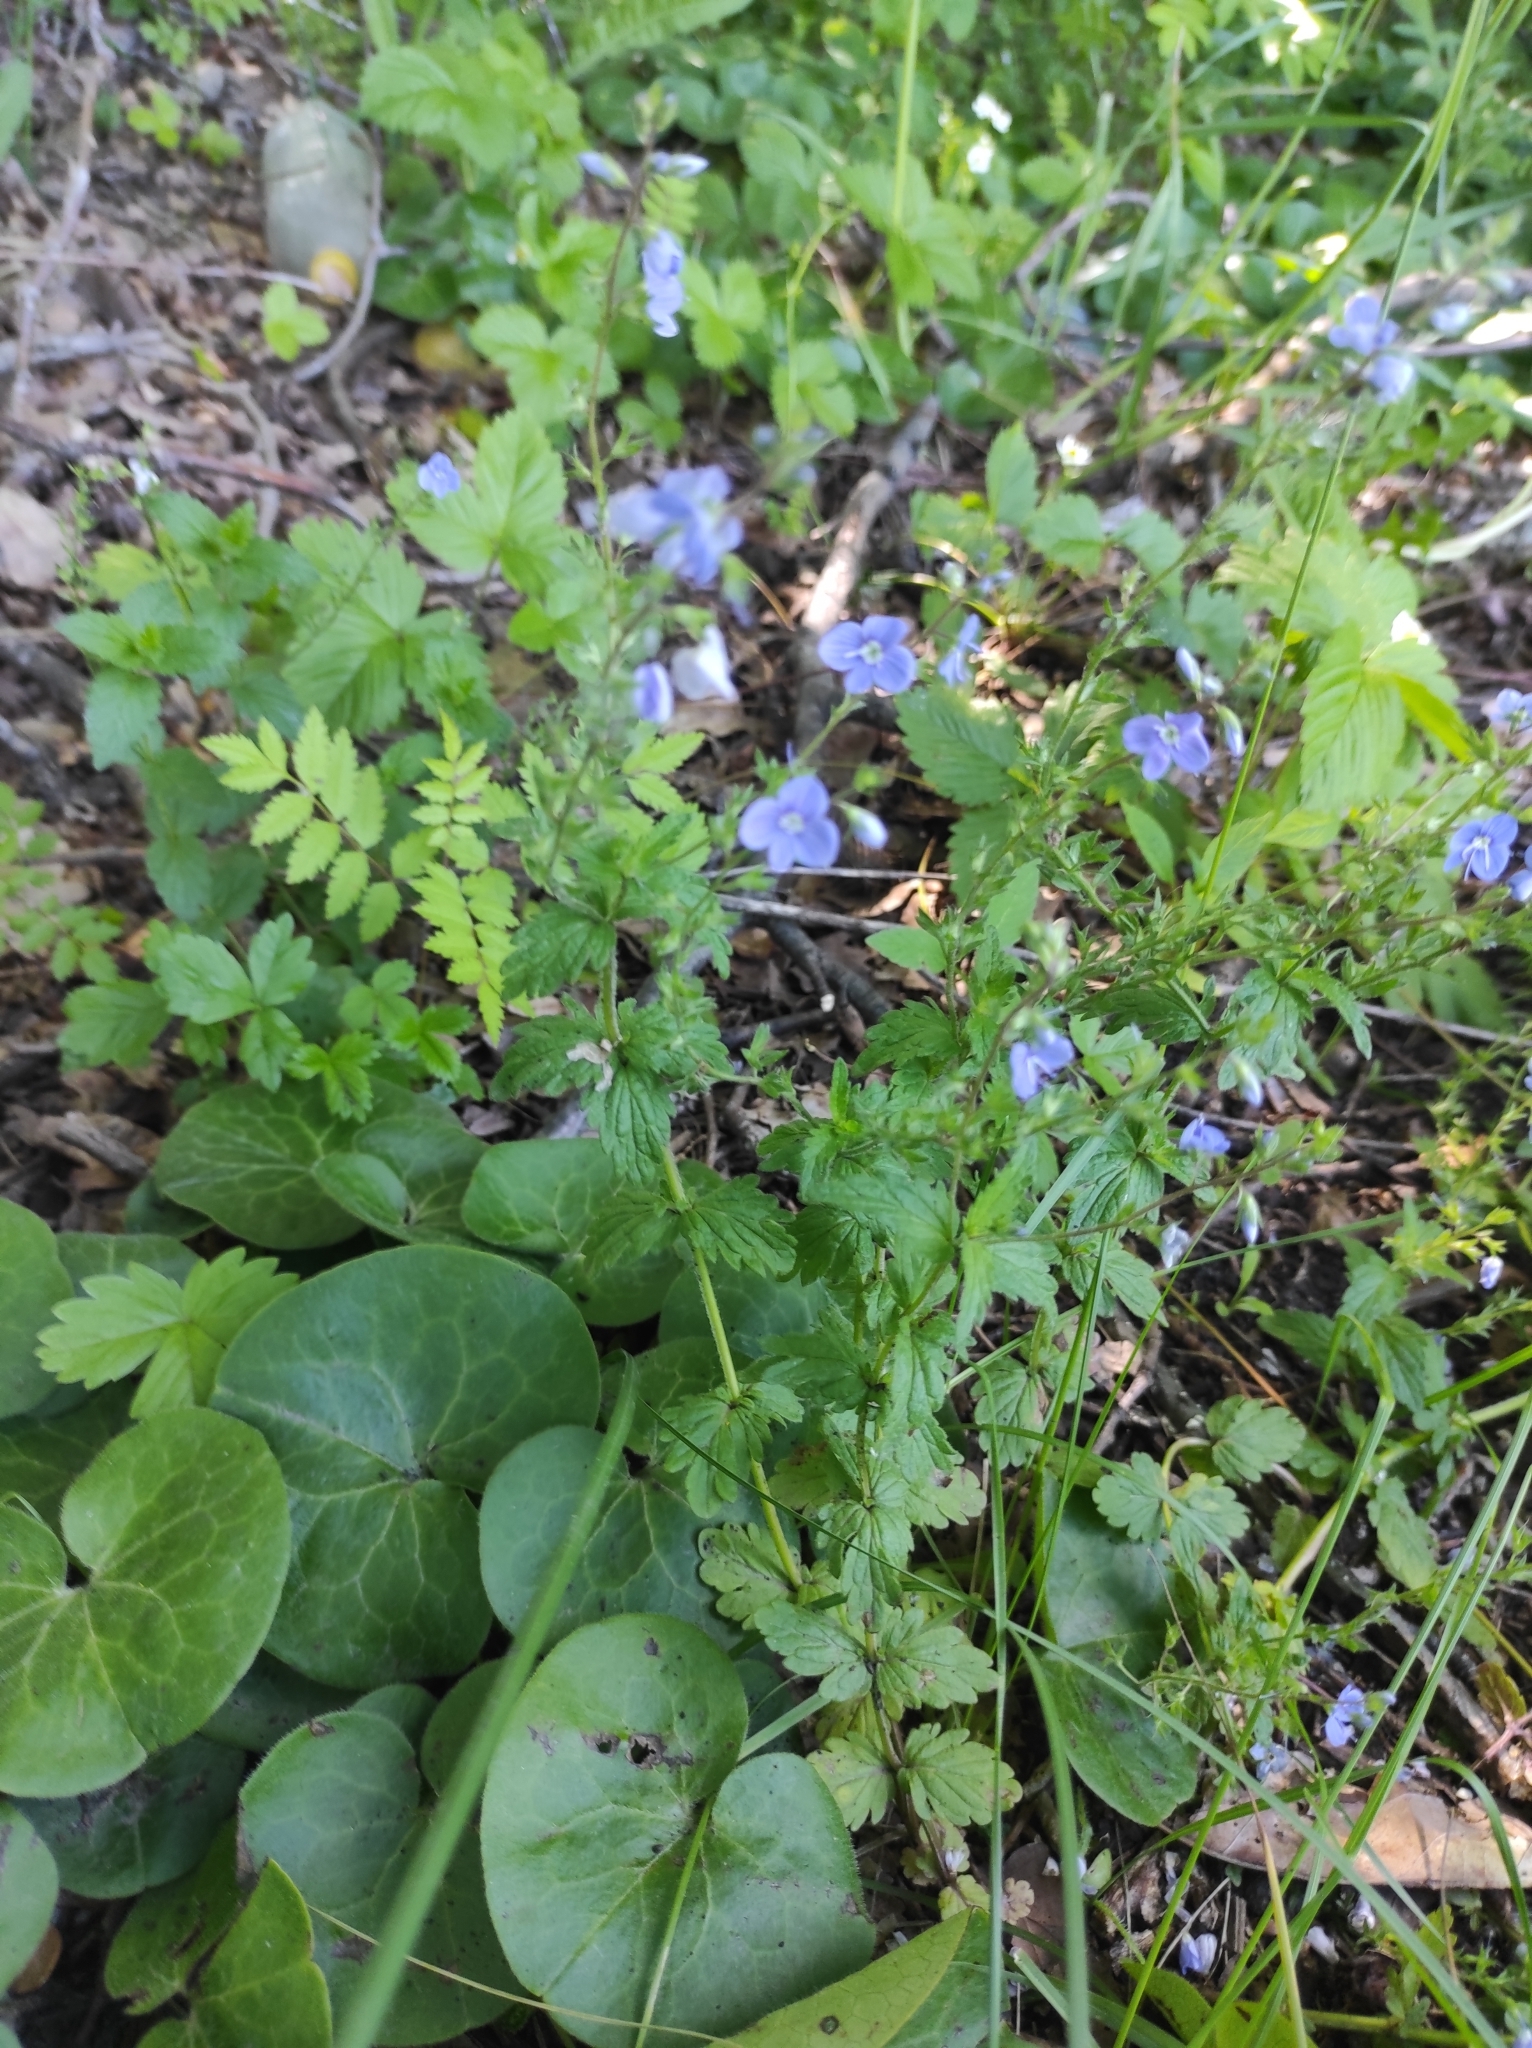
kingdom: Plantae
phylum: Tracheophyta
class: Magnoliopsida
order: Lamiales
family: Plantaginaceae
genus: Veronica
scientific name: Veronica chamaedrys
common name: Germander speedwell
